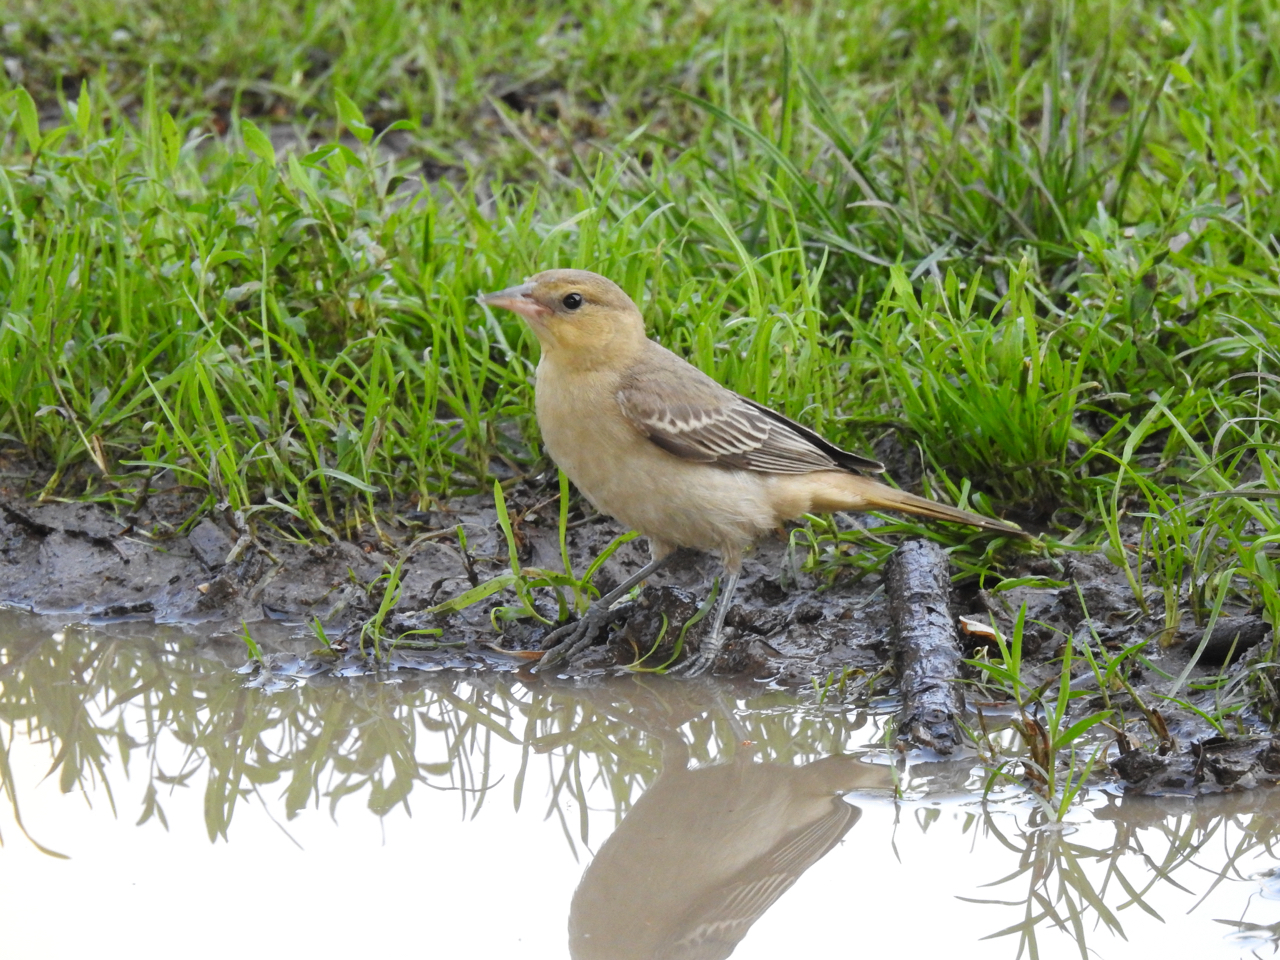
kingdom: Animalia
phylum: Chordata
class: Aves
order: Passeriformes
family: Icteridae
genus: Icterus
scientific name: Icterus bullockii
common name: Bullock's oriole
